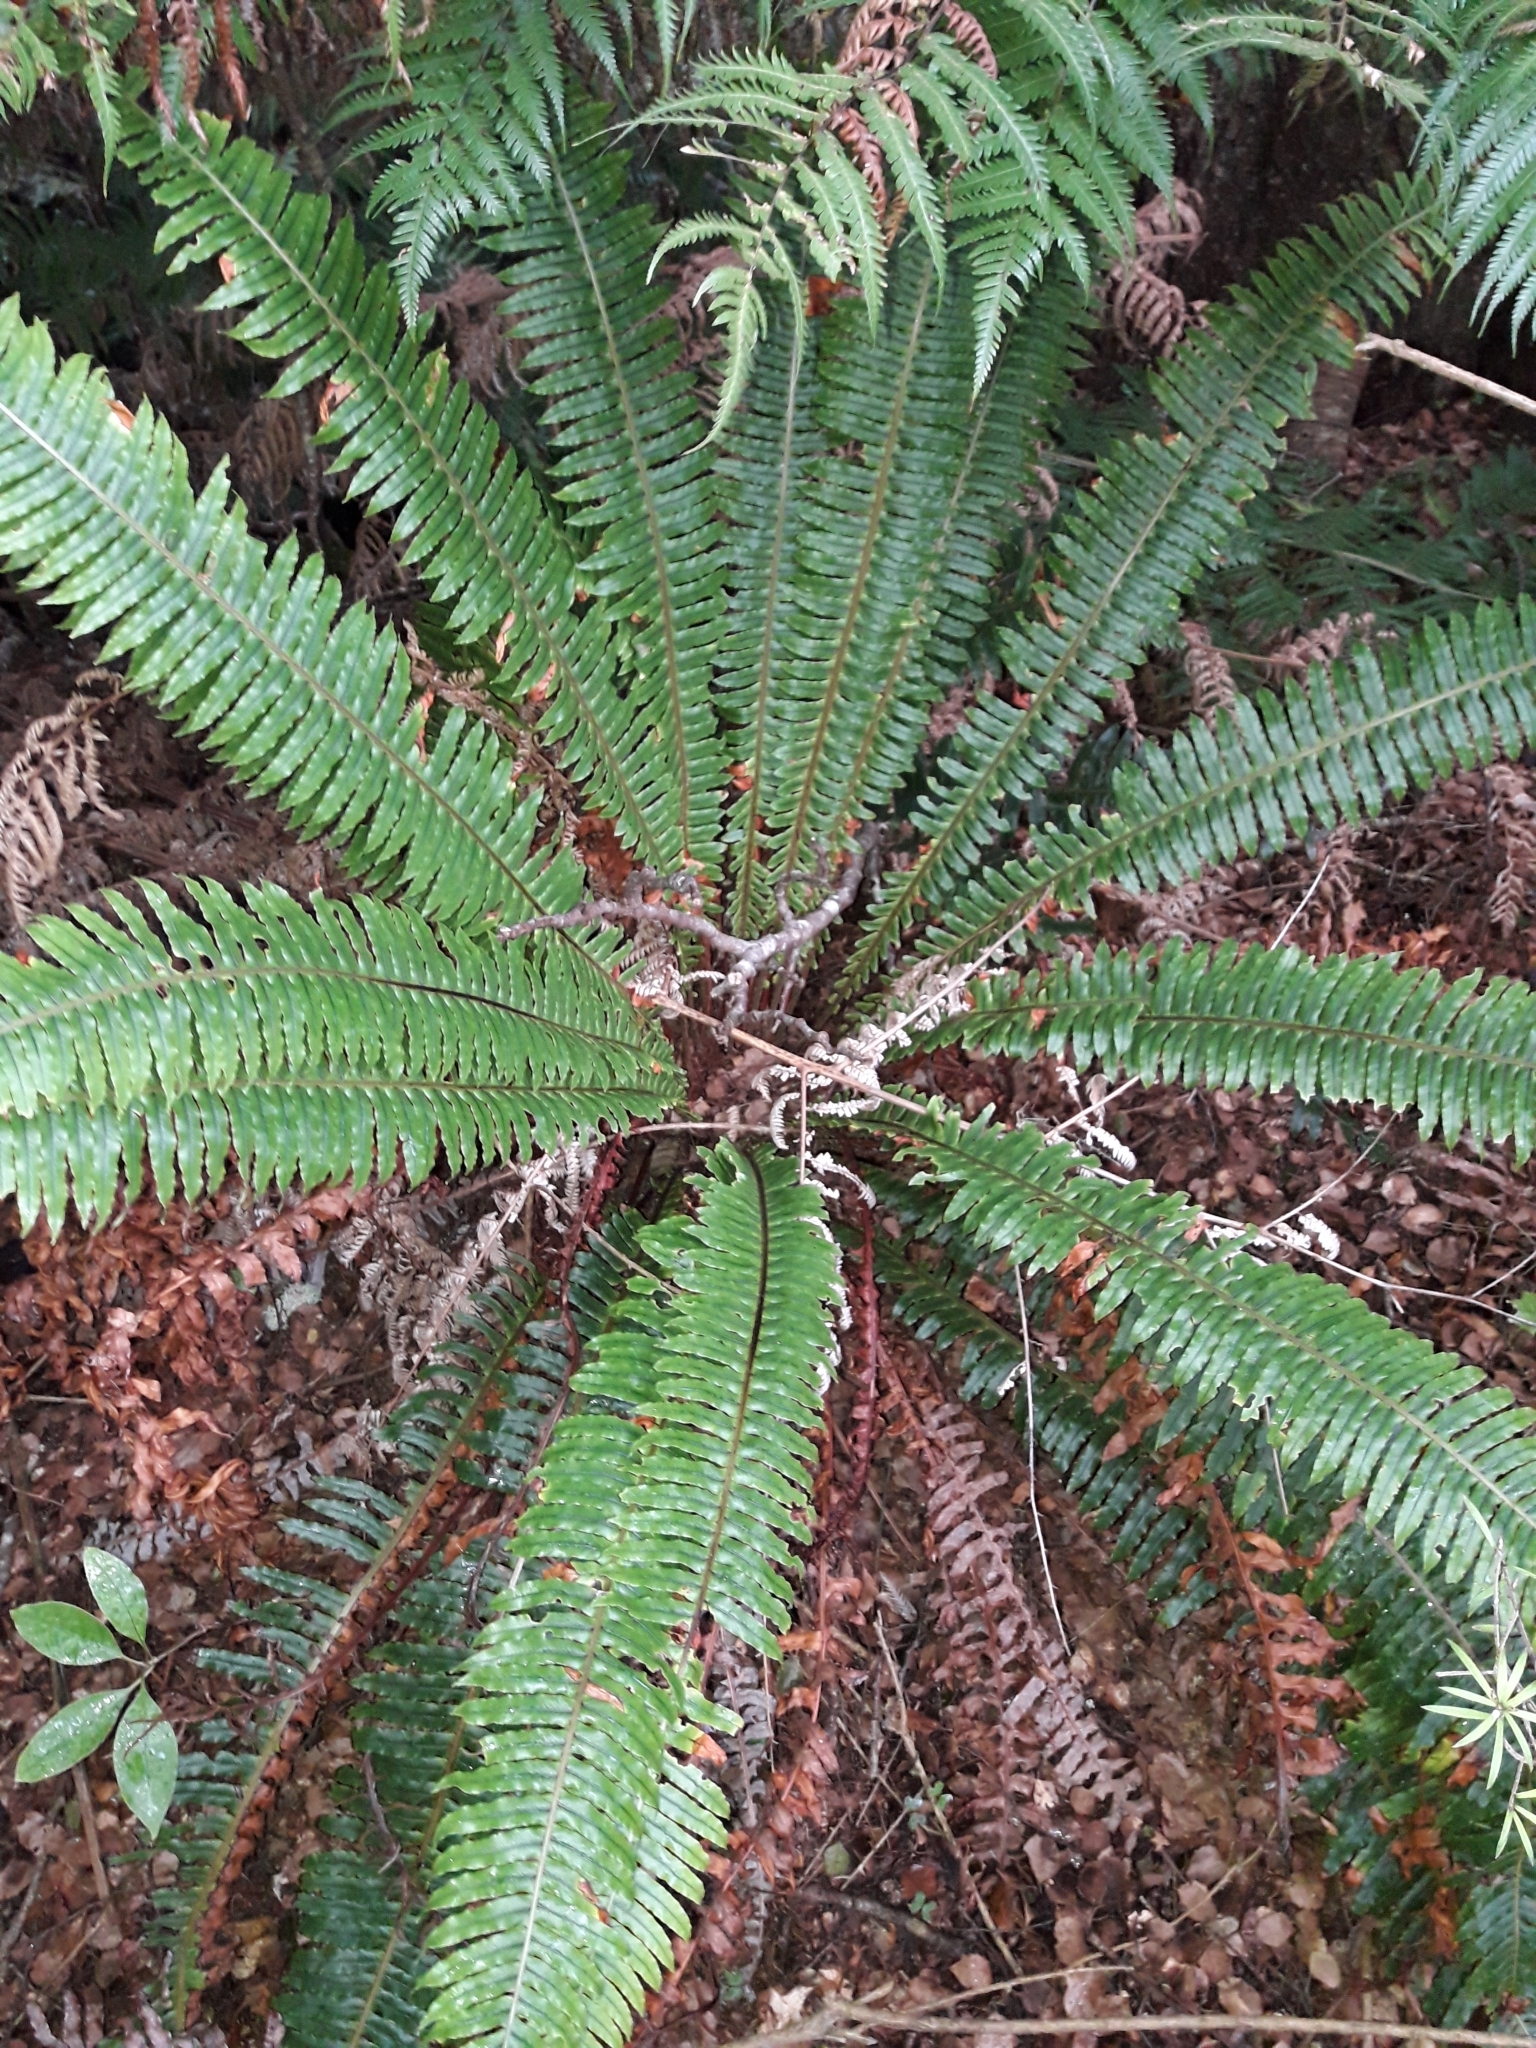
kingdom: Plantae
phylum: Tracheophyta
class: Polypodiopsida
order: Polypodiales
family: Blechnaceae
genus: Lomaria
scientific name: Lomaria discolor
